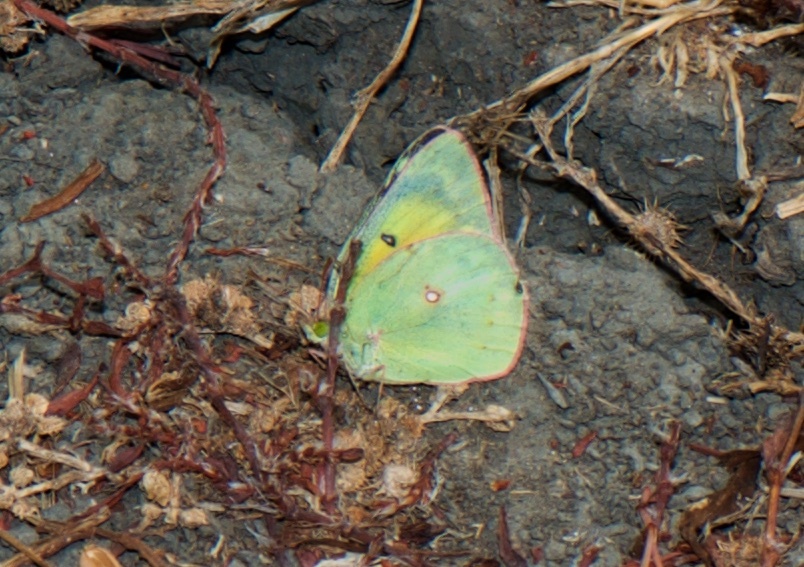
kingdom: Animalia
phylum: Arthropoda
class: Insecta
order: Lepidoptera
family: Pieridae
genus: Colias
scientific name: Colias eurytheme
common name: Alfalfa butterfly
